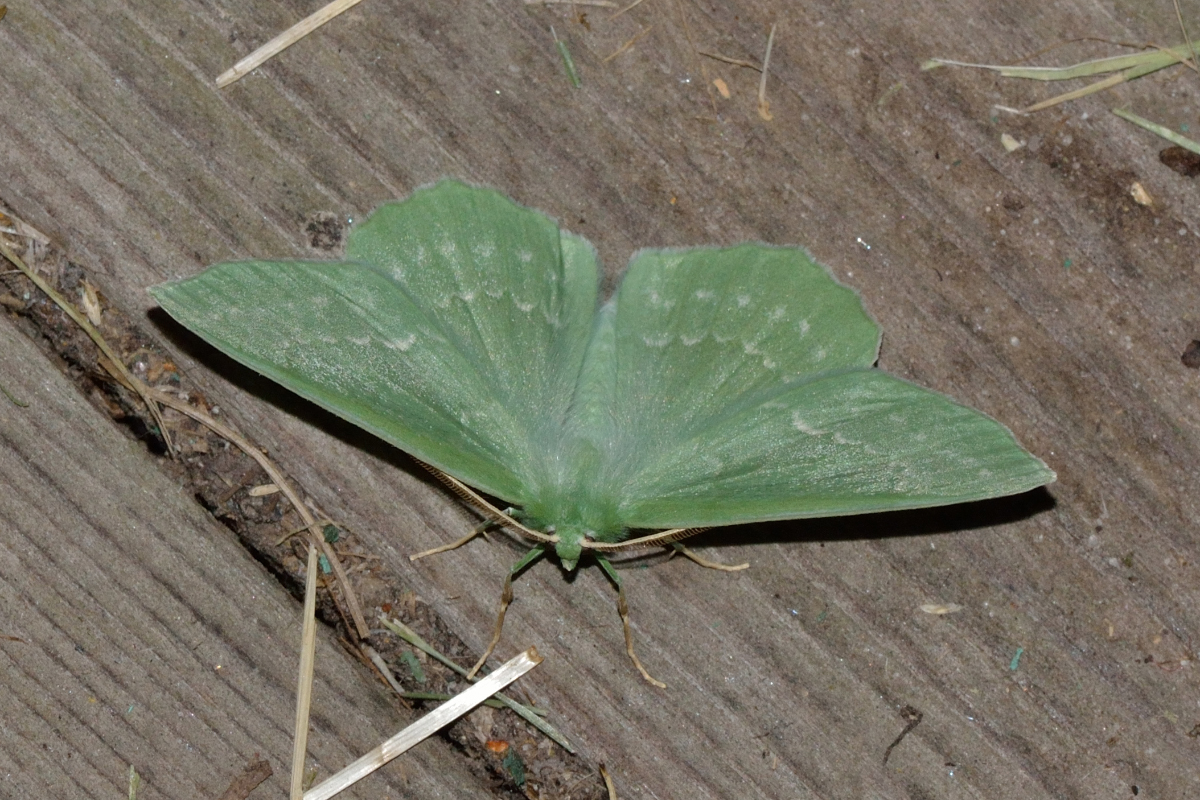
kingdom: Animalia
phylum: Arthropoda
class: Insecta
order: Lepidoptera
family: Geometridae
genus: Geometra
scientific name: Geometra papilionaria
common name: Large emerald
